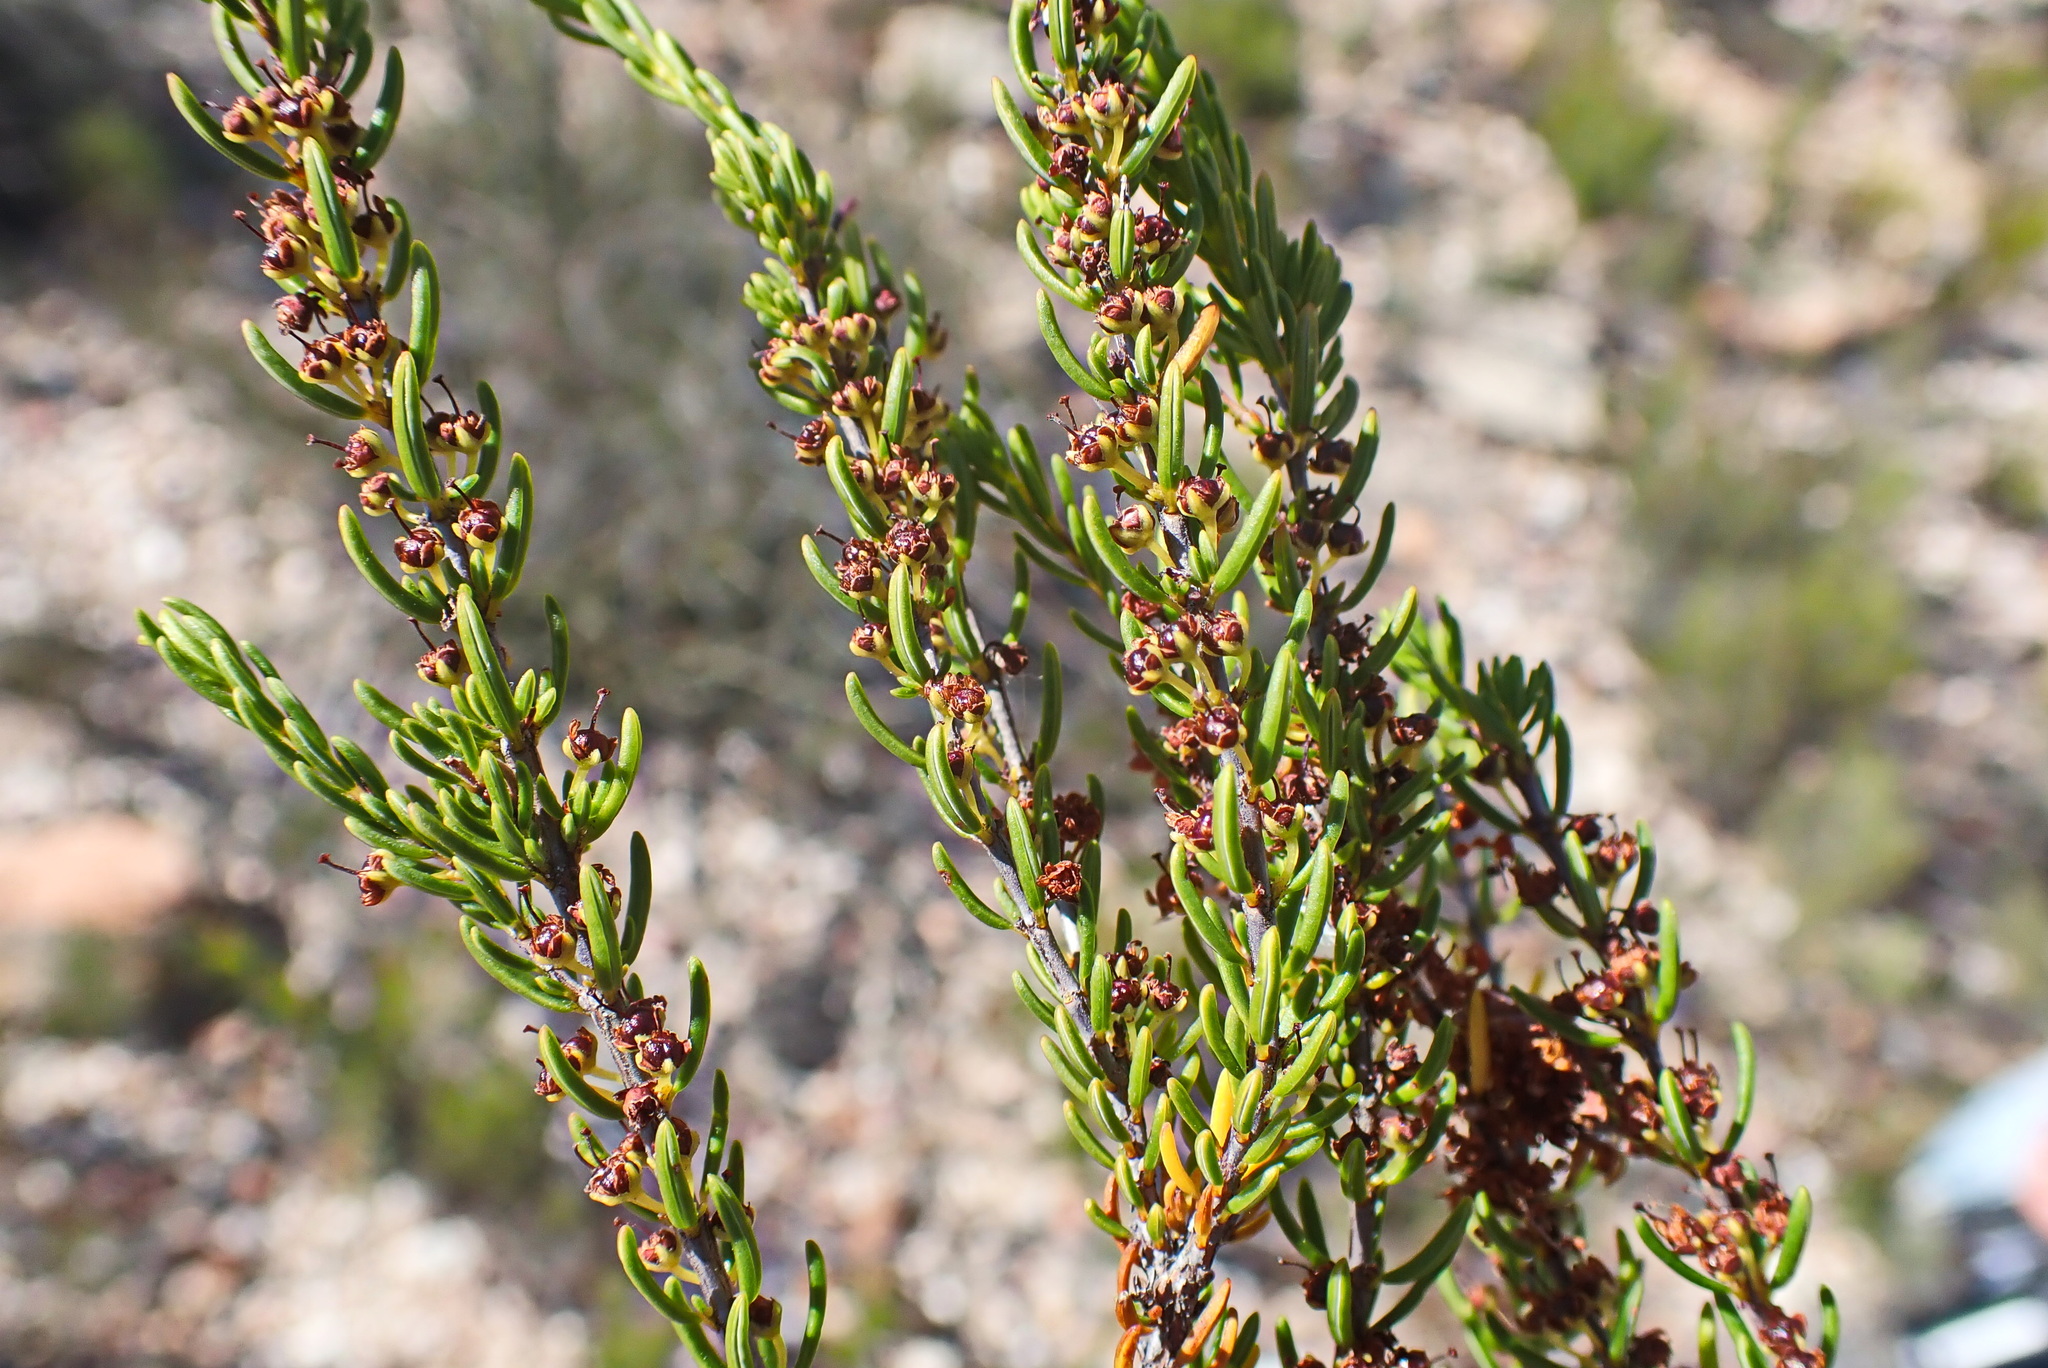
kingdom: Plantae
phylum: Tracheophyta
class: Magnoliopsida
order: Ericales
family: Ericaceae
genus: Erica
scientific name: Erica coarctata
